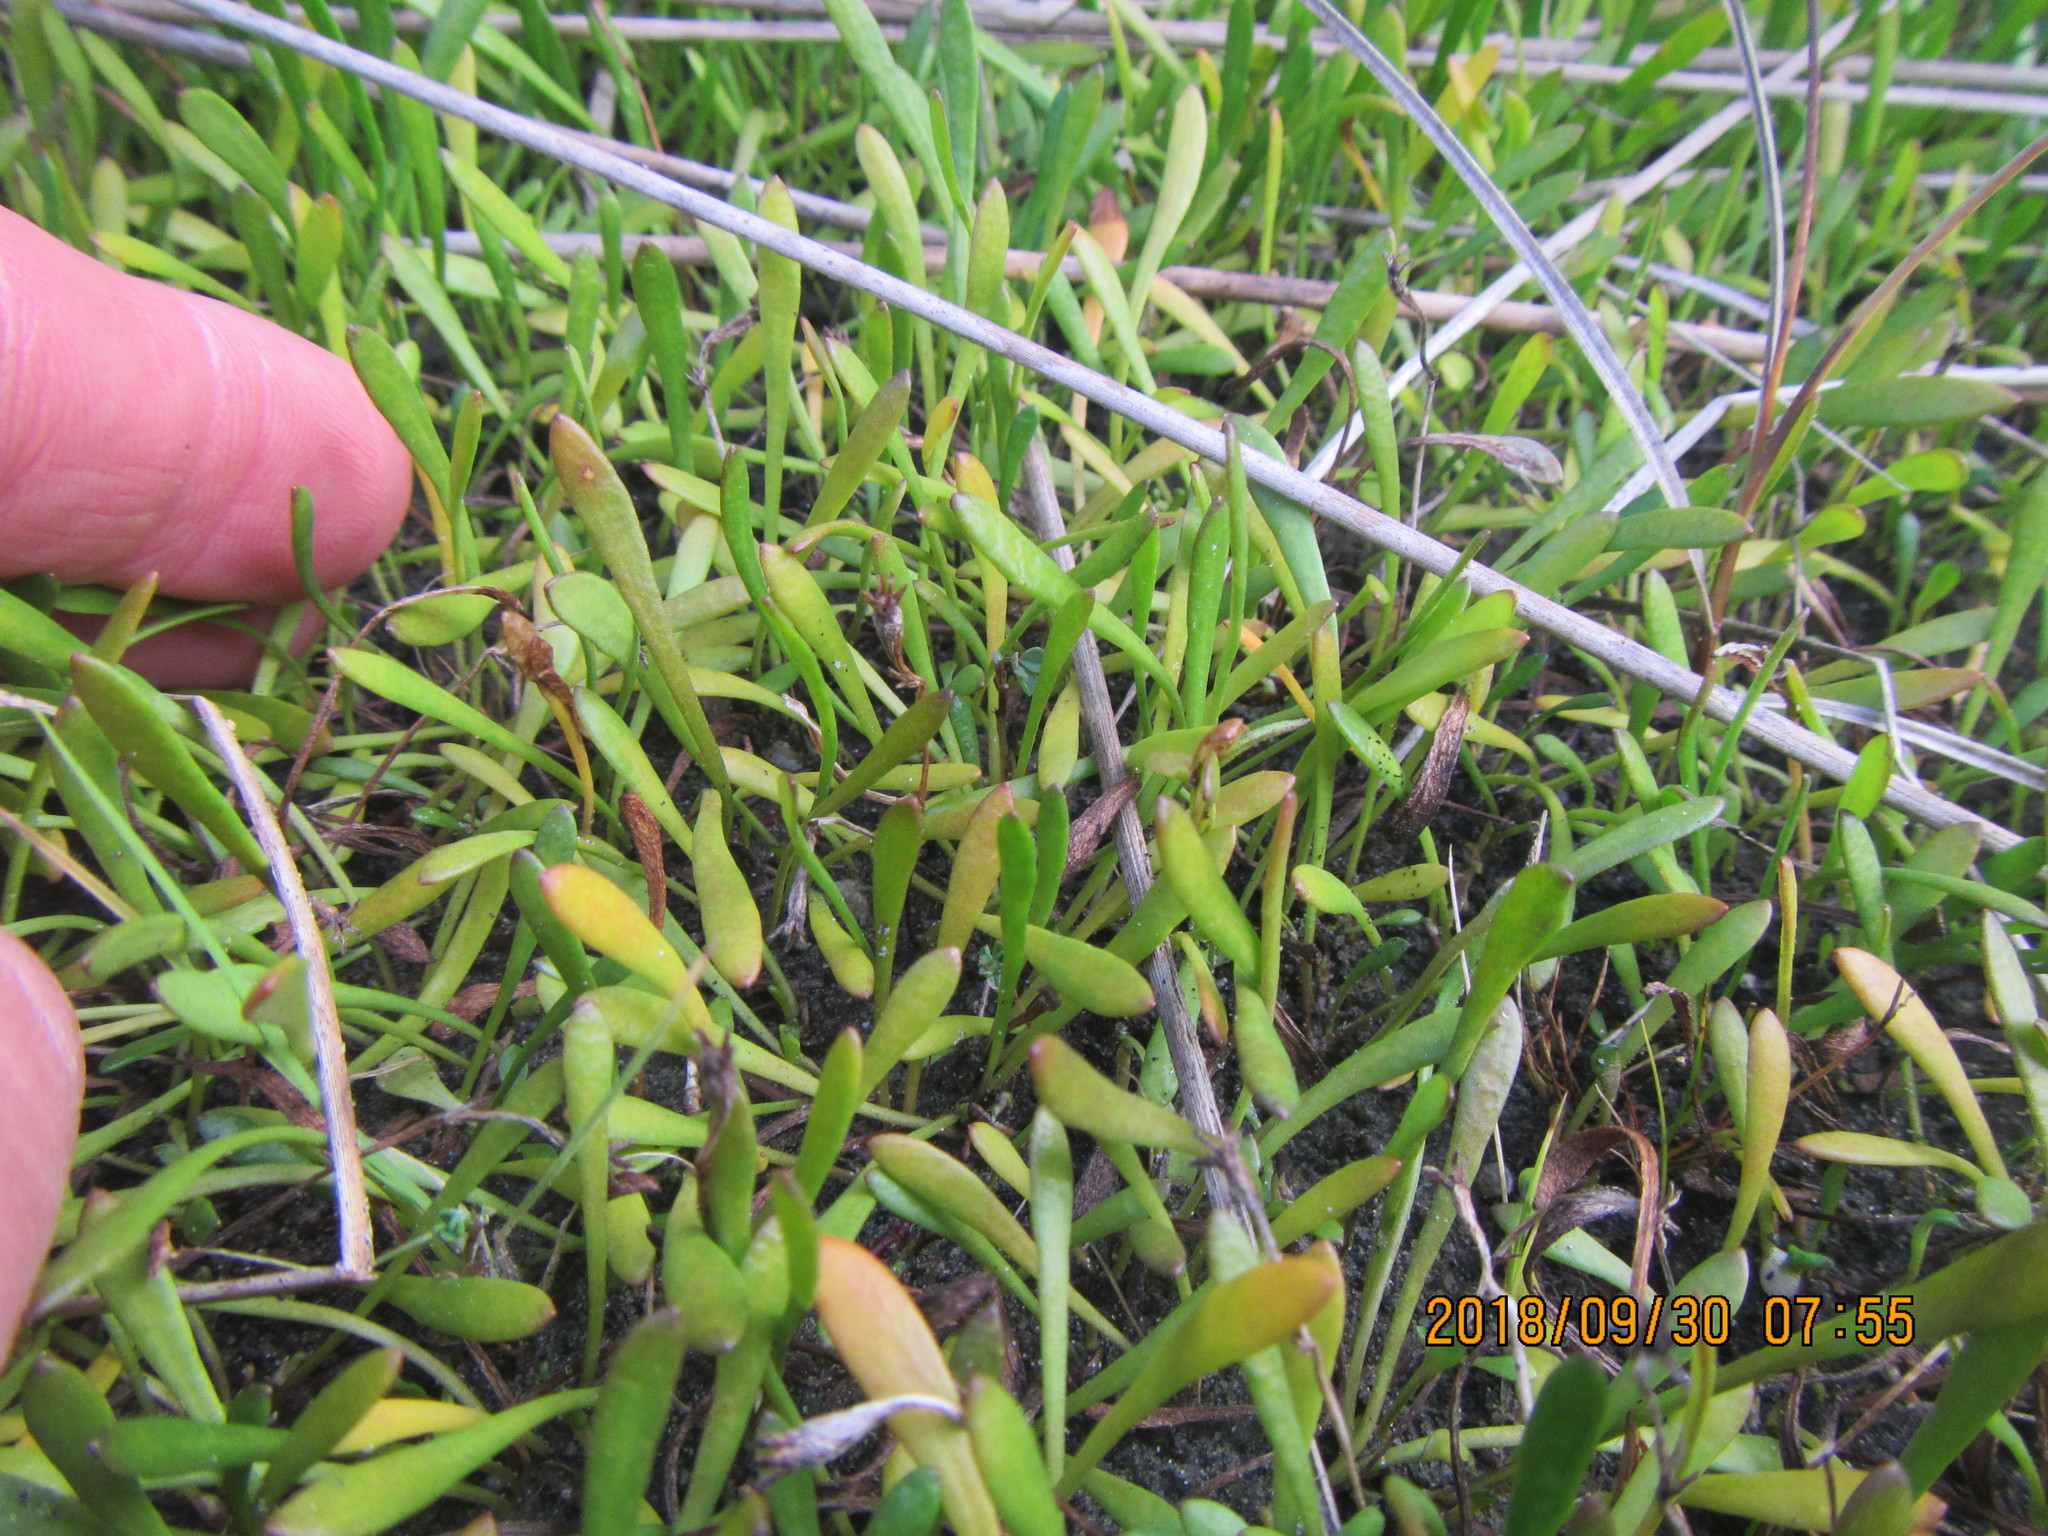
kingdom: Plantae
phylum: Tracheophyta
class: Magnoliopsida
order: Asterales
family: Goodeniaceae
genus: Goodenia
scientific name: Goodenia radicans
